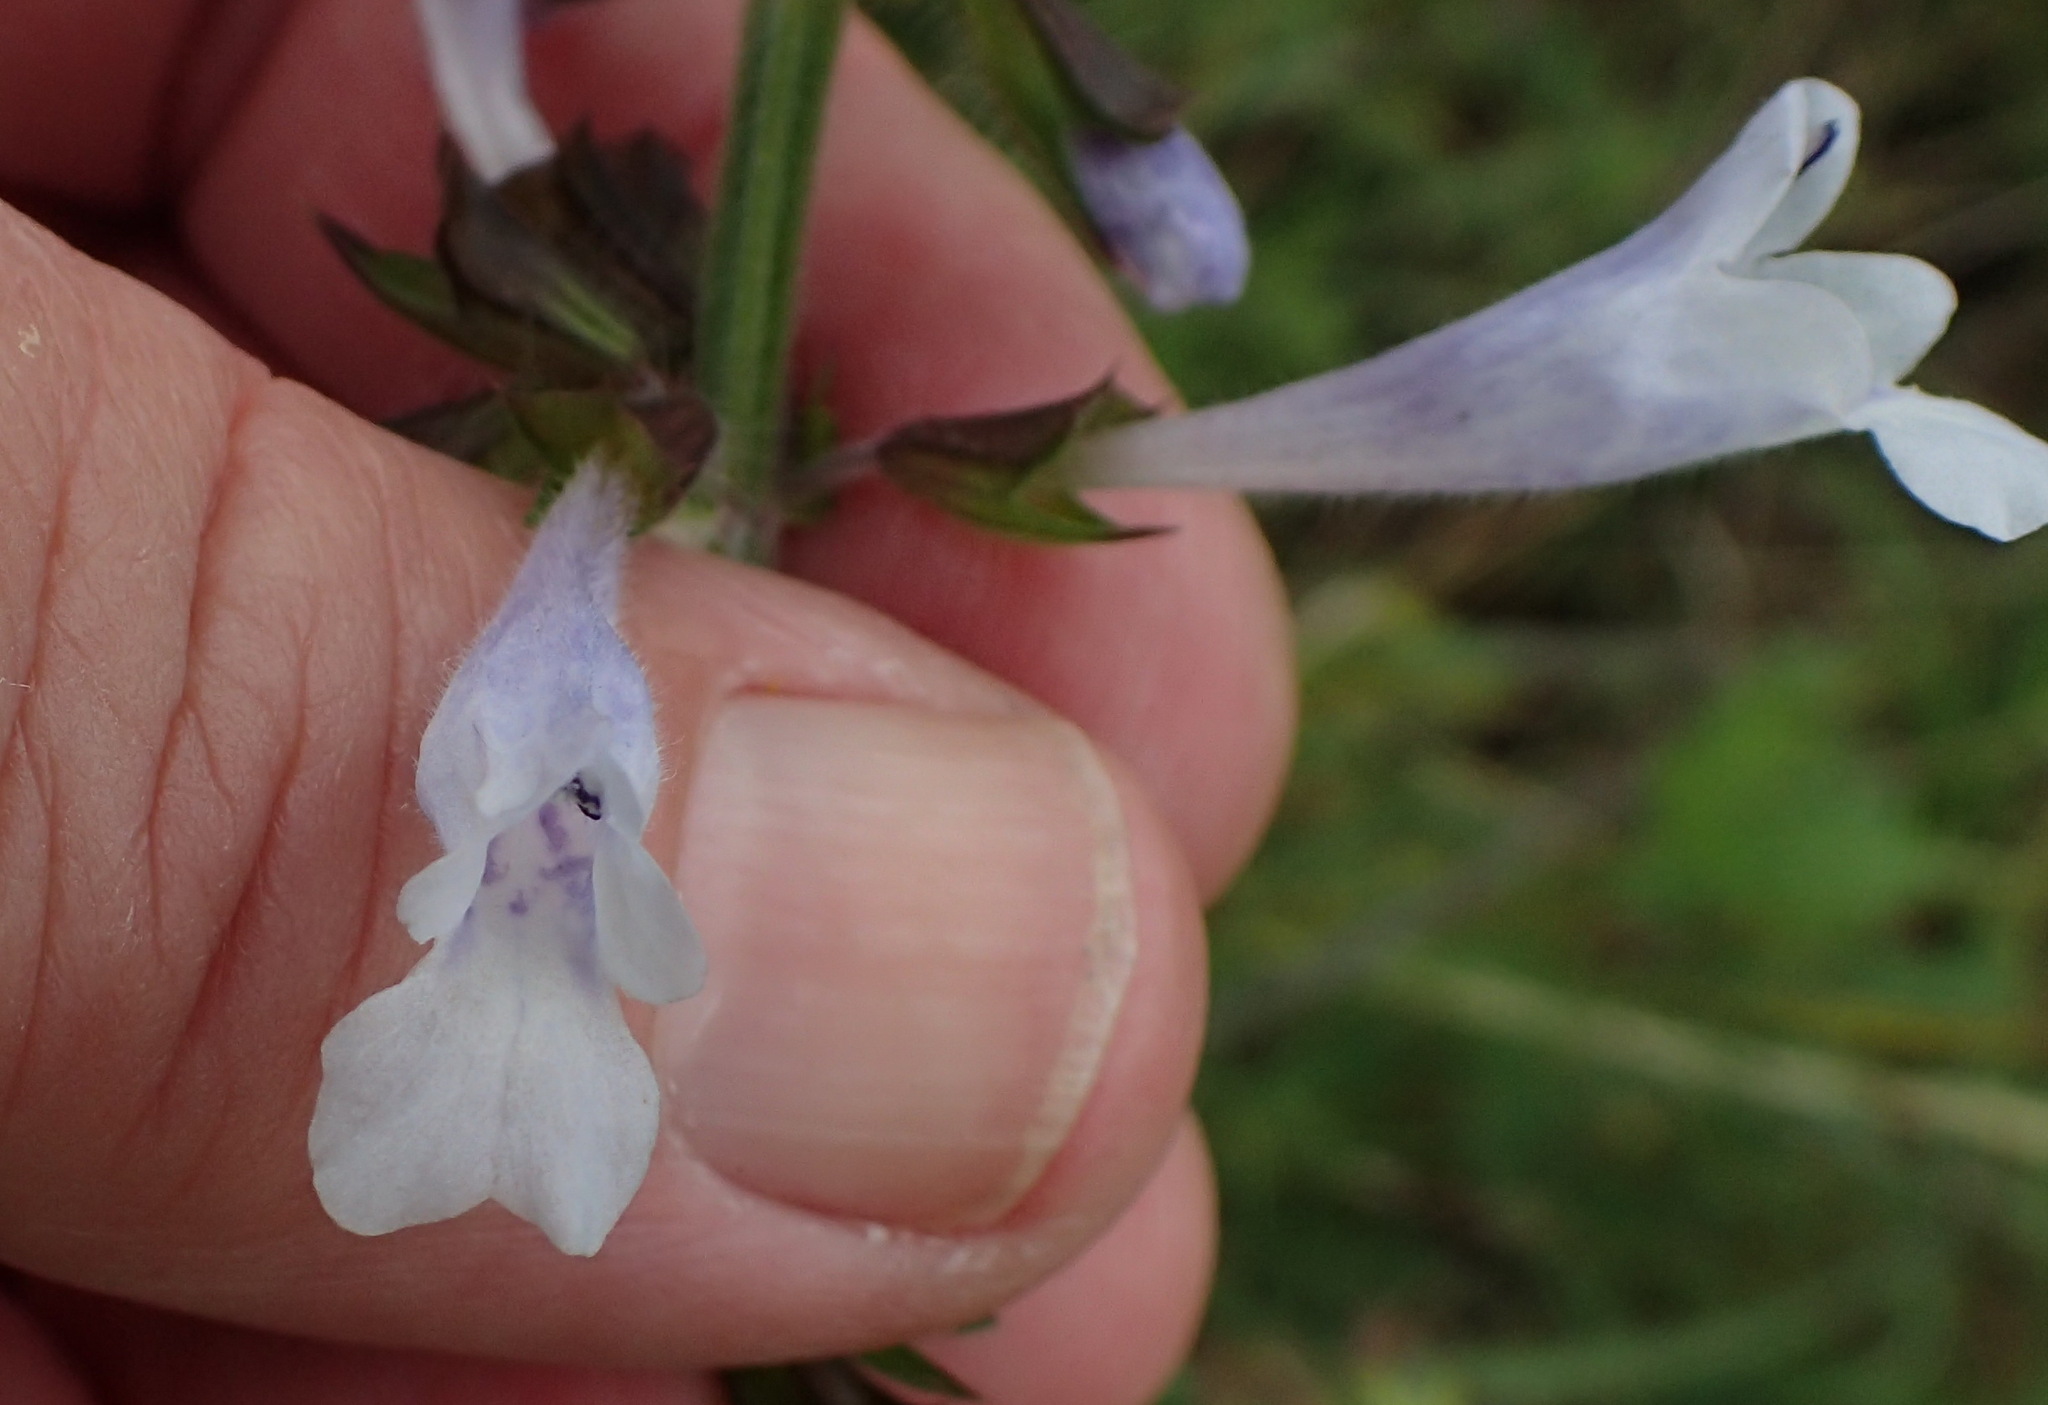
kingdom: Plantae
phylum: Tracheophyta
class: Magnoliopsida
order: Lamiales
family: Lamiaceae
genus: Salvia
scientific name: Salvia lyrata
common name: Cancerweed
